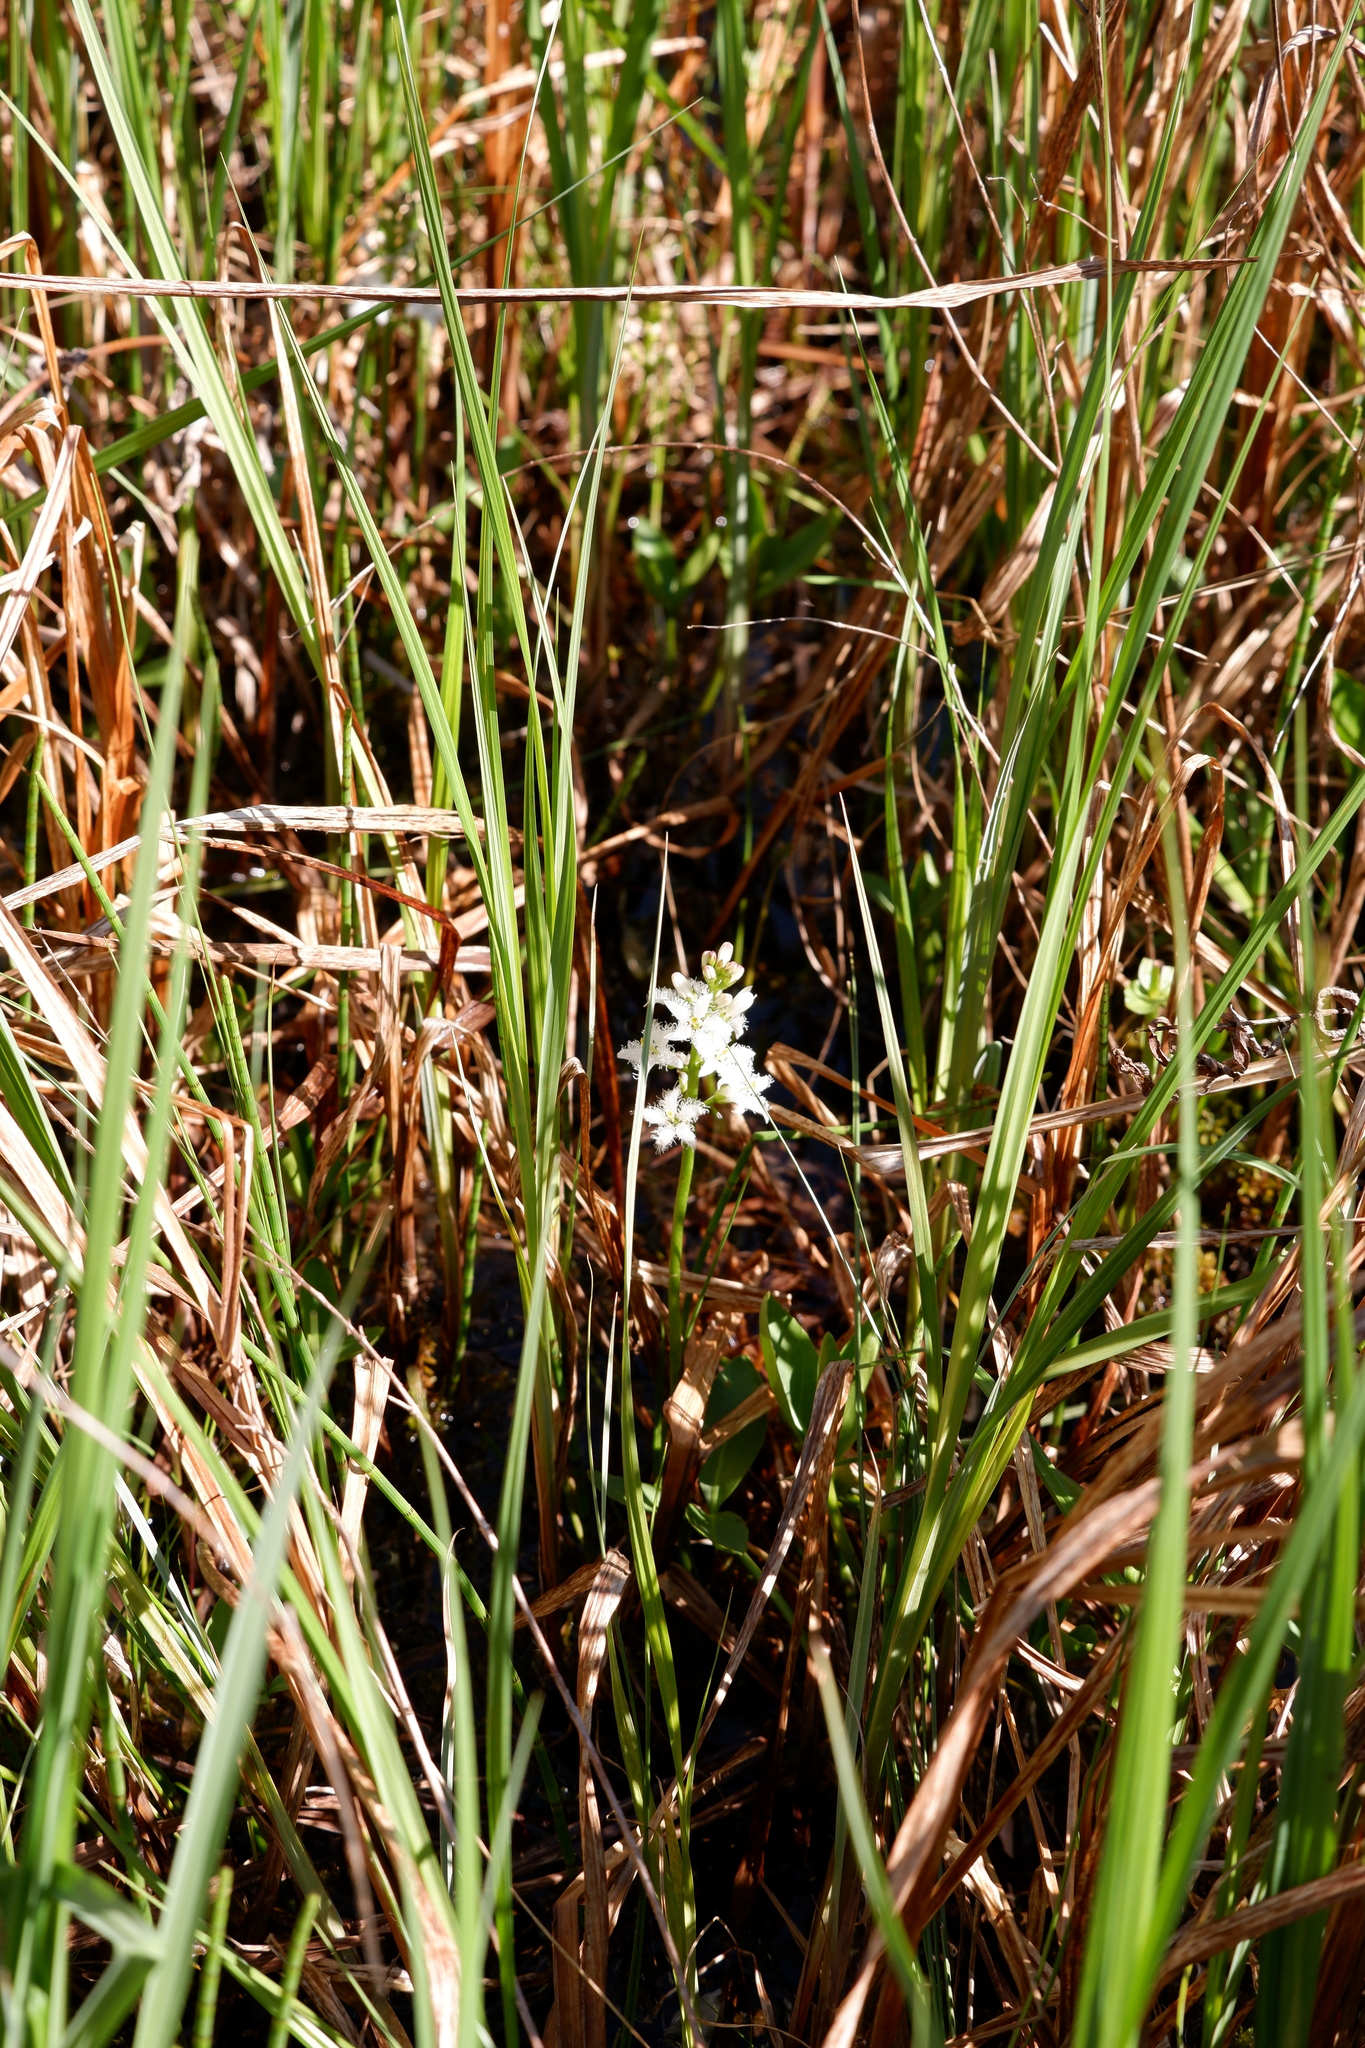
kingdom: Plantae
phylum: Tracheophyta
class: Magnoliopsida
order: Asterales
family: Menyanthaceae
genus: Menyanthes
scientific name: Menyanthes trifoliata
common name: Bogbean
